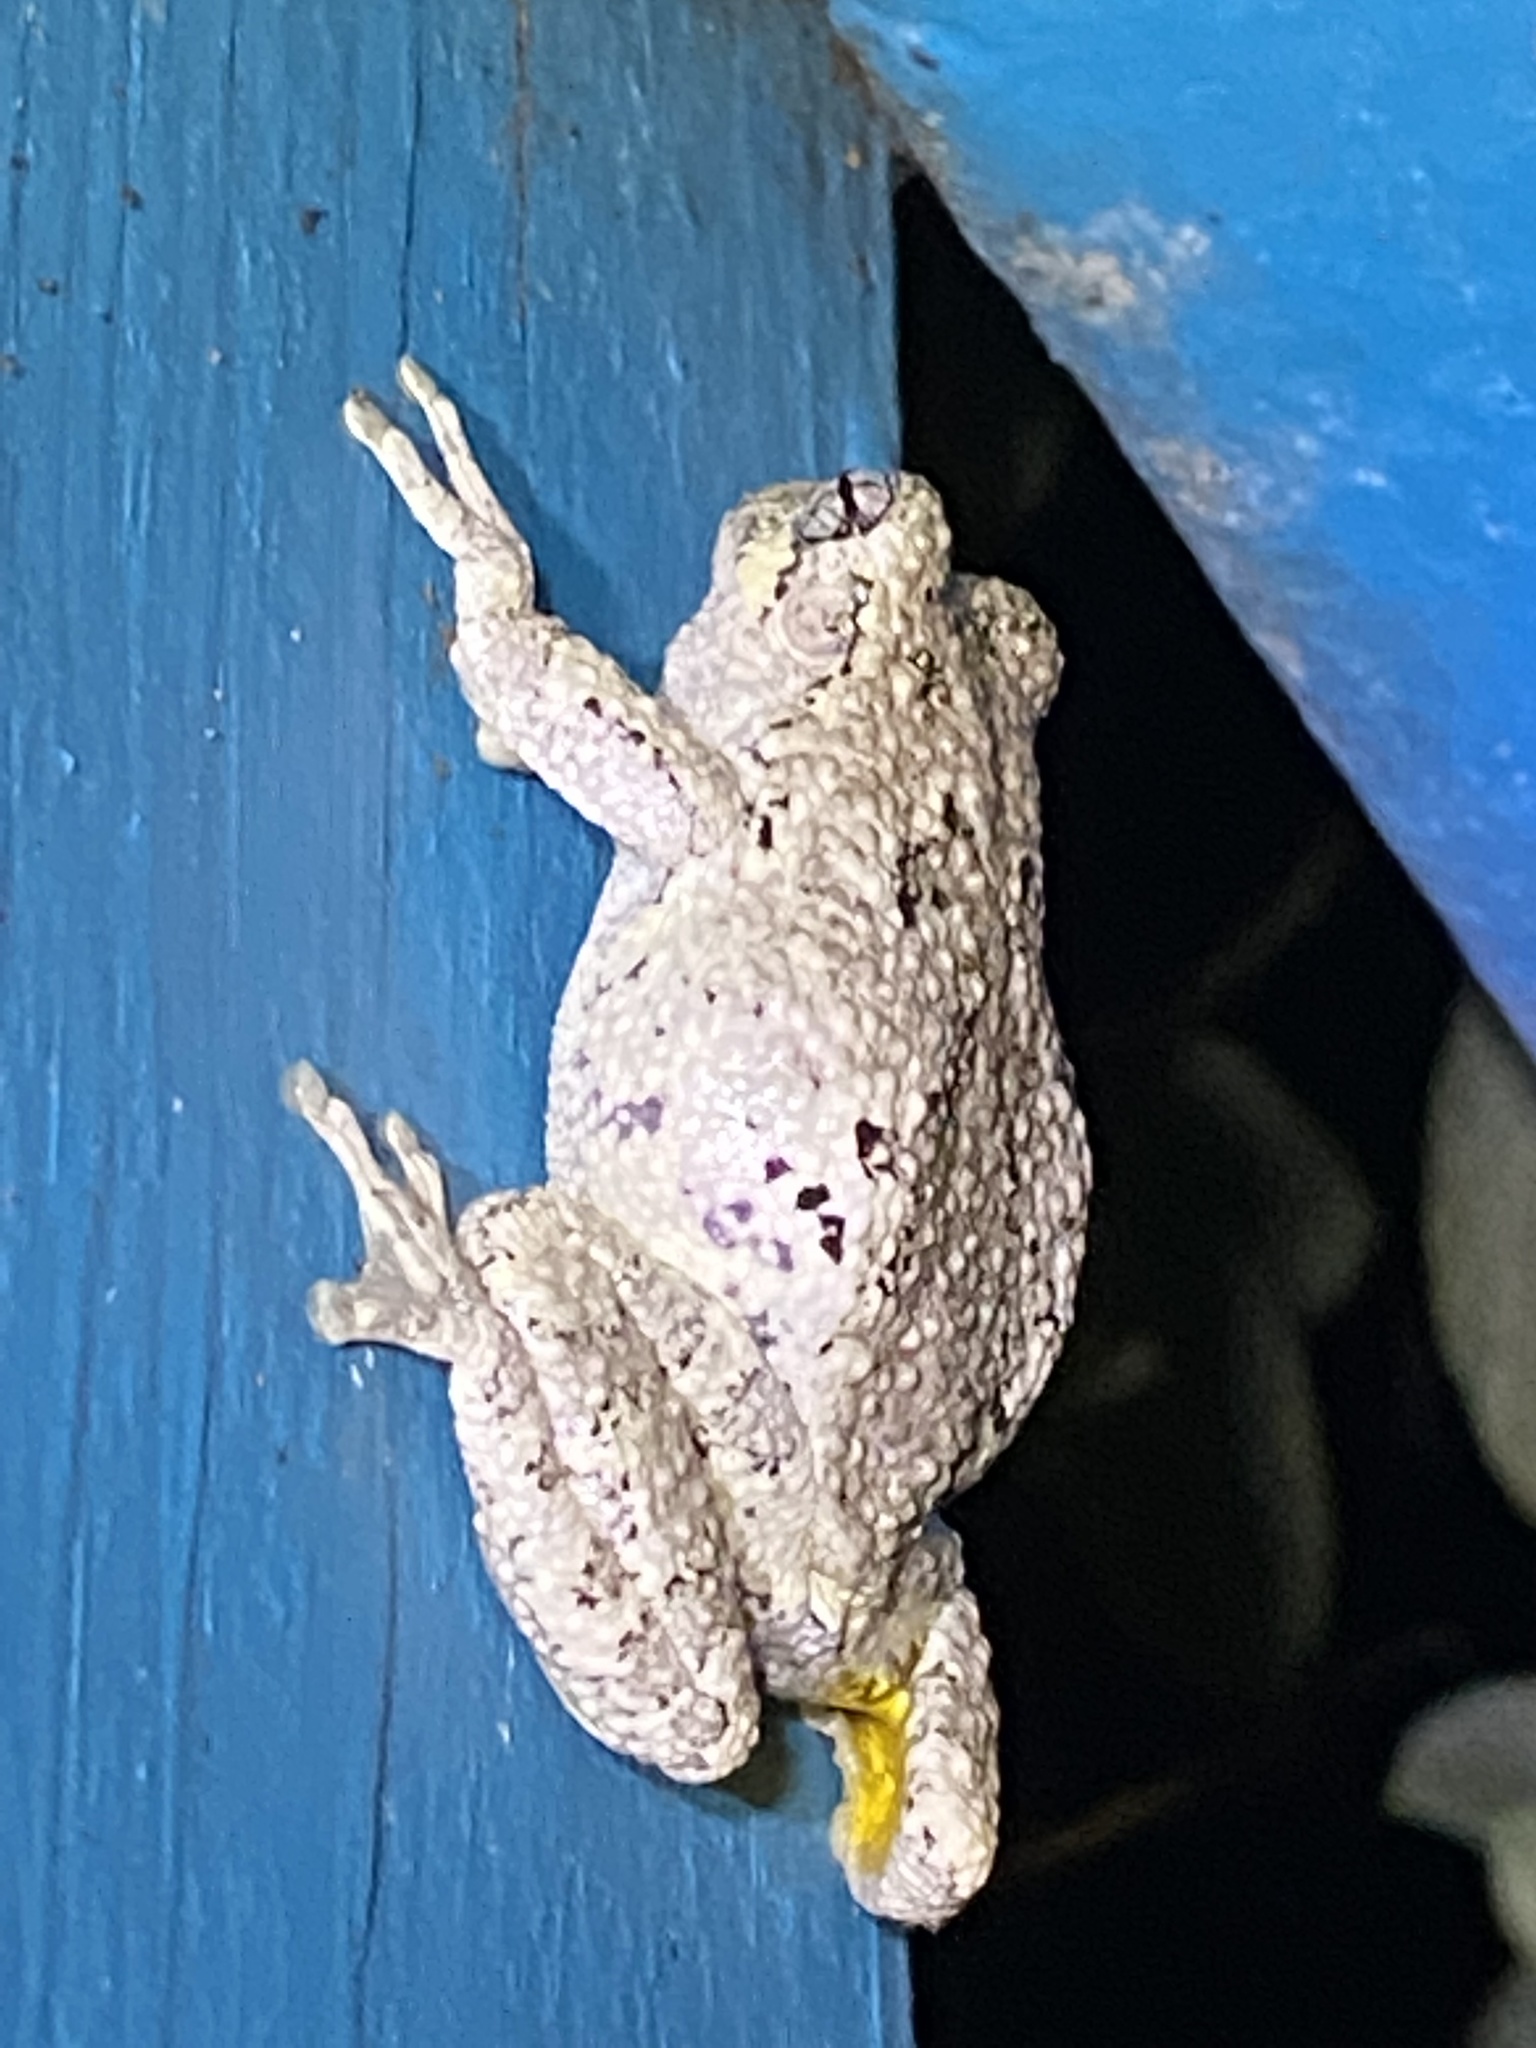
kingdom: Animalia
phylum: Chordata
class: Amphibia
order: Anura
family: Hylidae
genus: Dryophytes
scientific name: Dryophytes chrysoscelis
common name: Cope's gray treefrog
